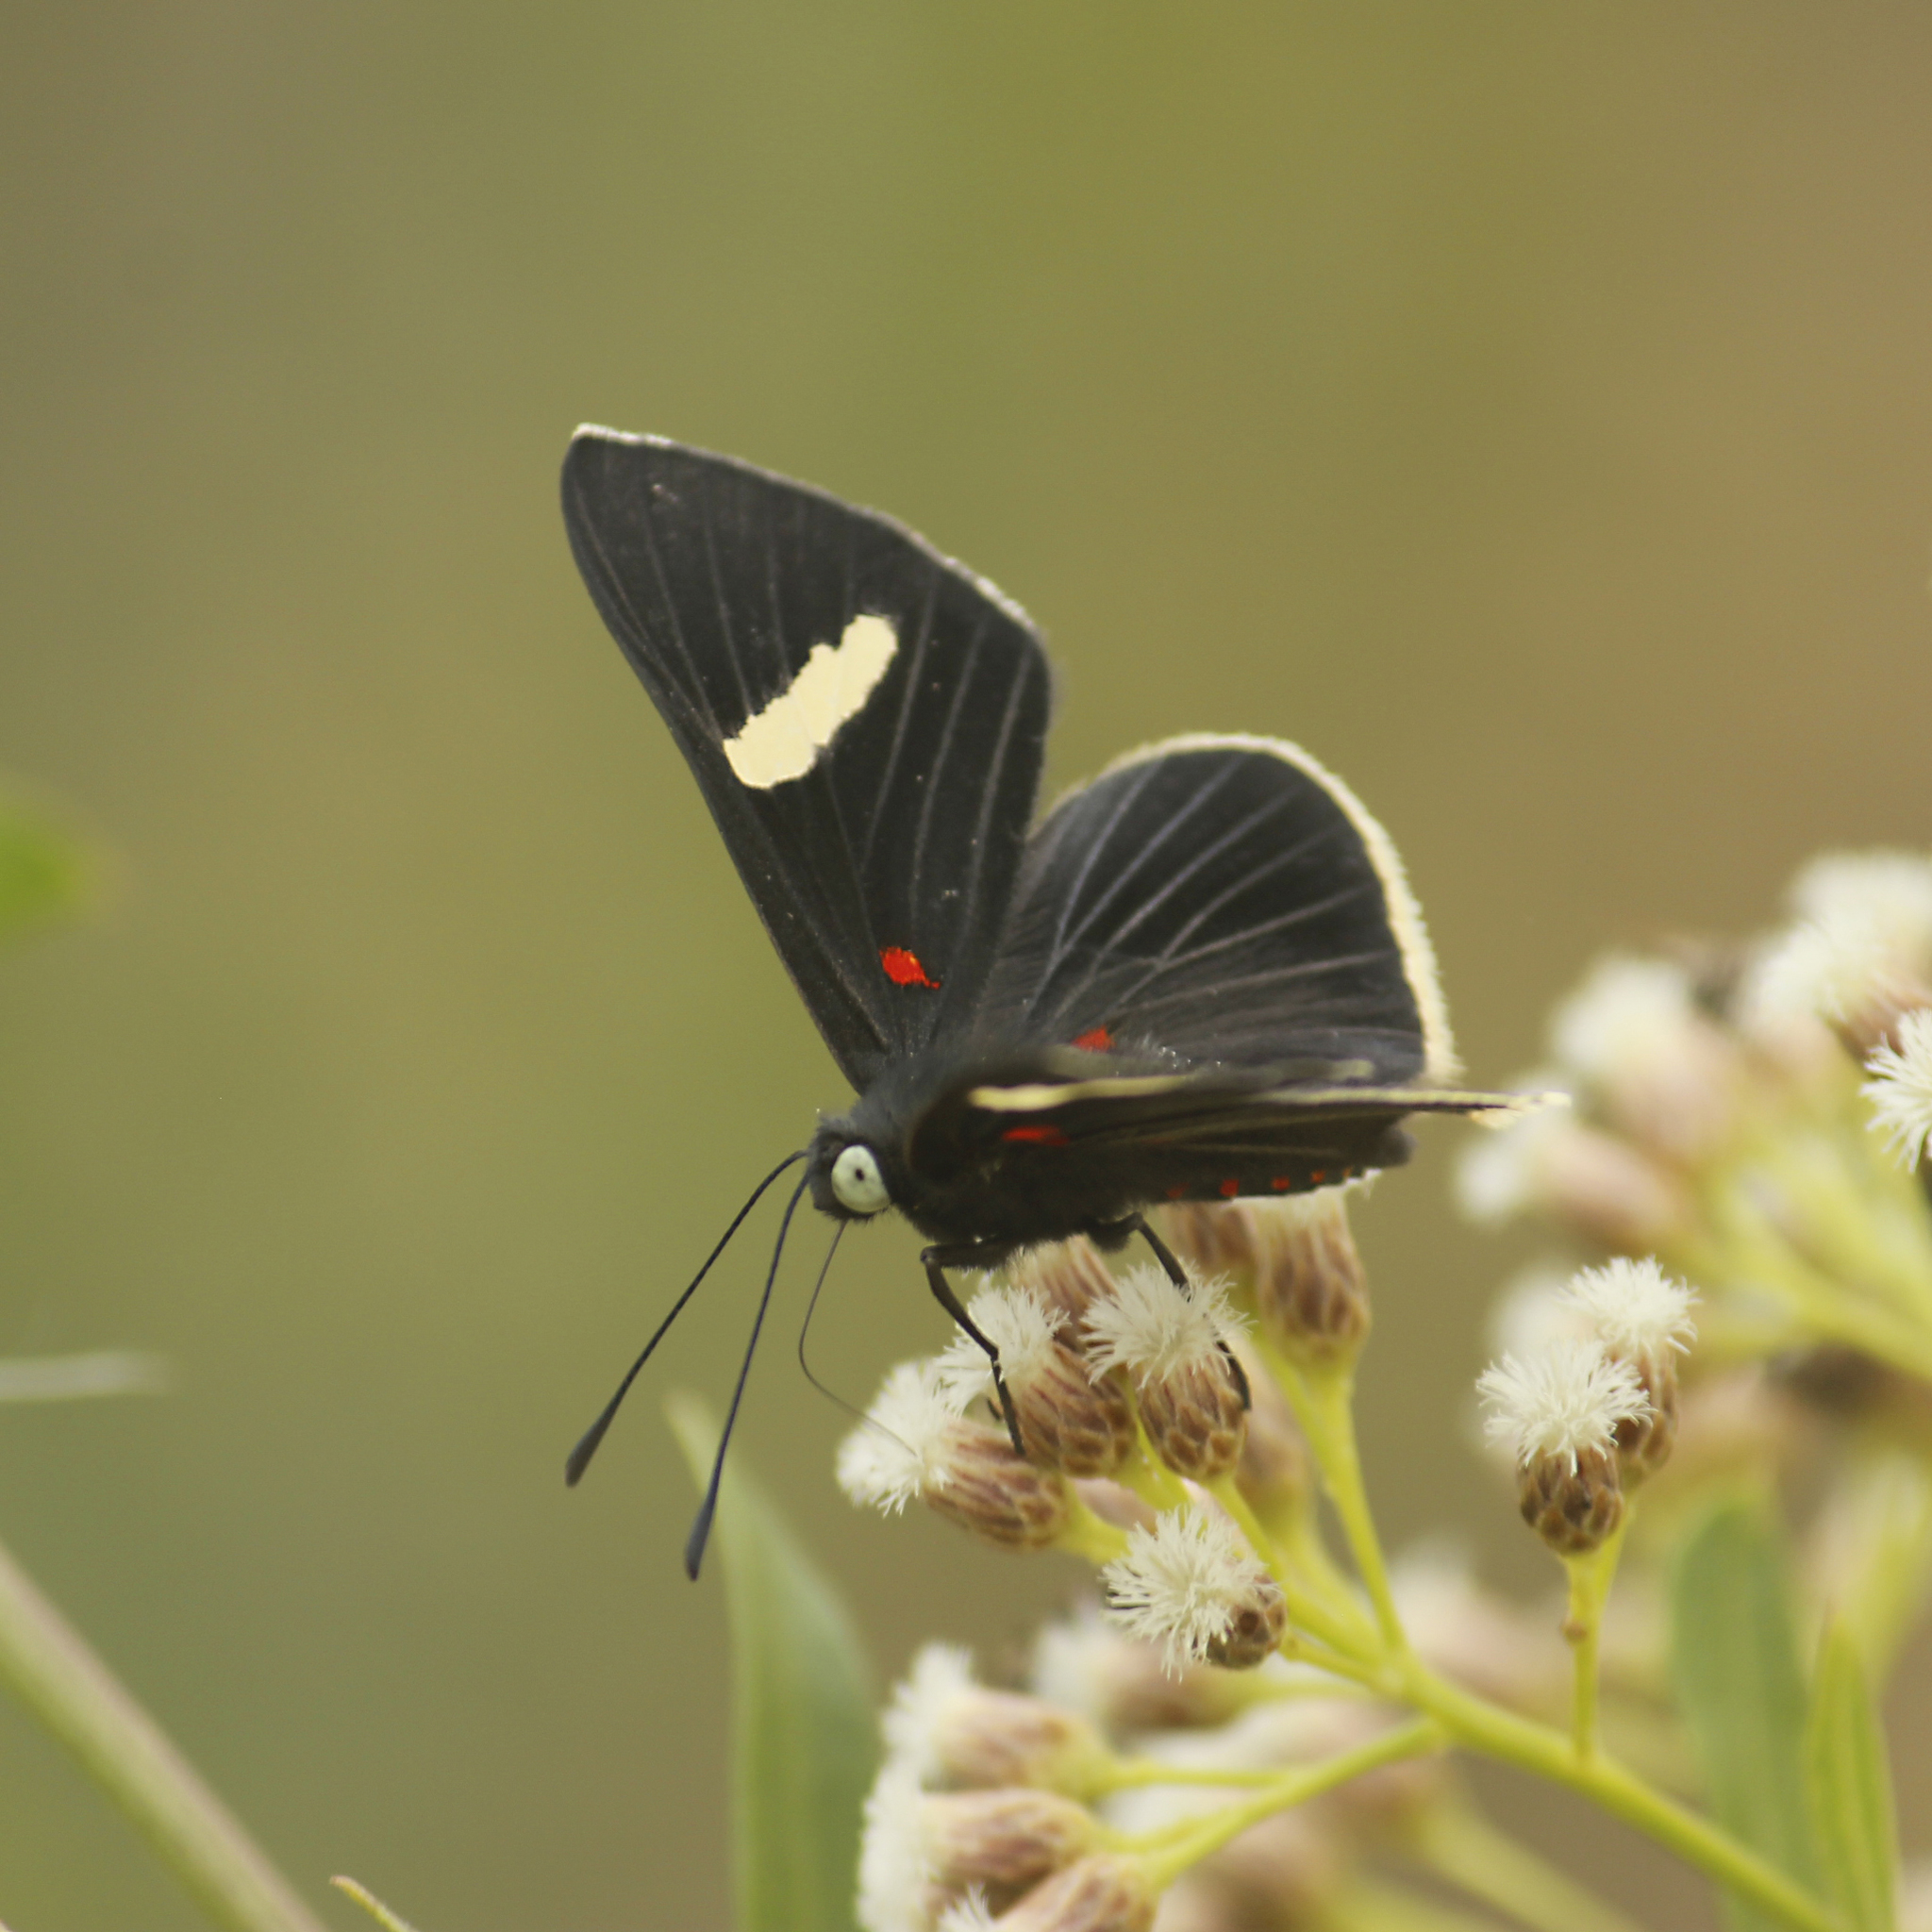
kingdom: Animalia
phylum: Arthropoda
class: Insecta
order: Lepidoptera
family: Lycaenidae
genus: Melanis
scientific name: Melanis
